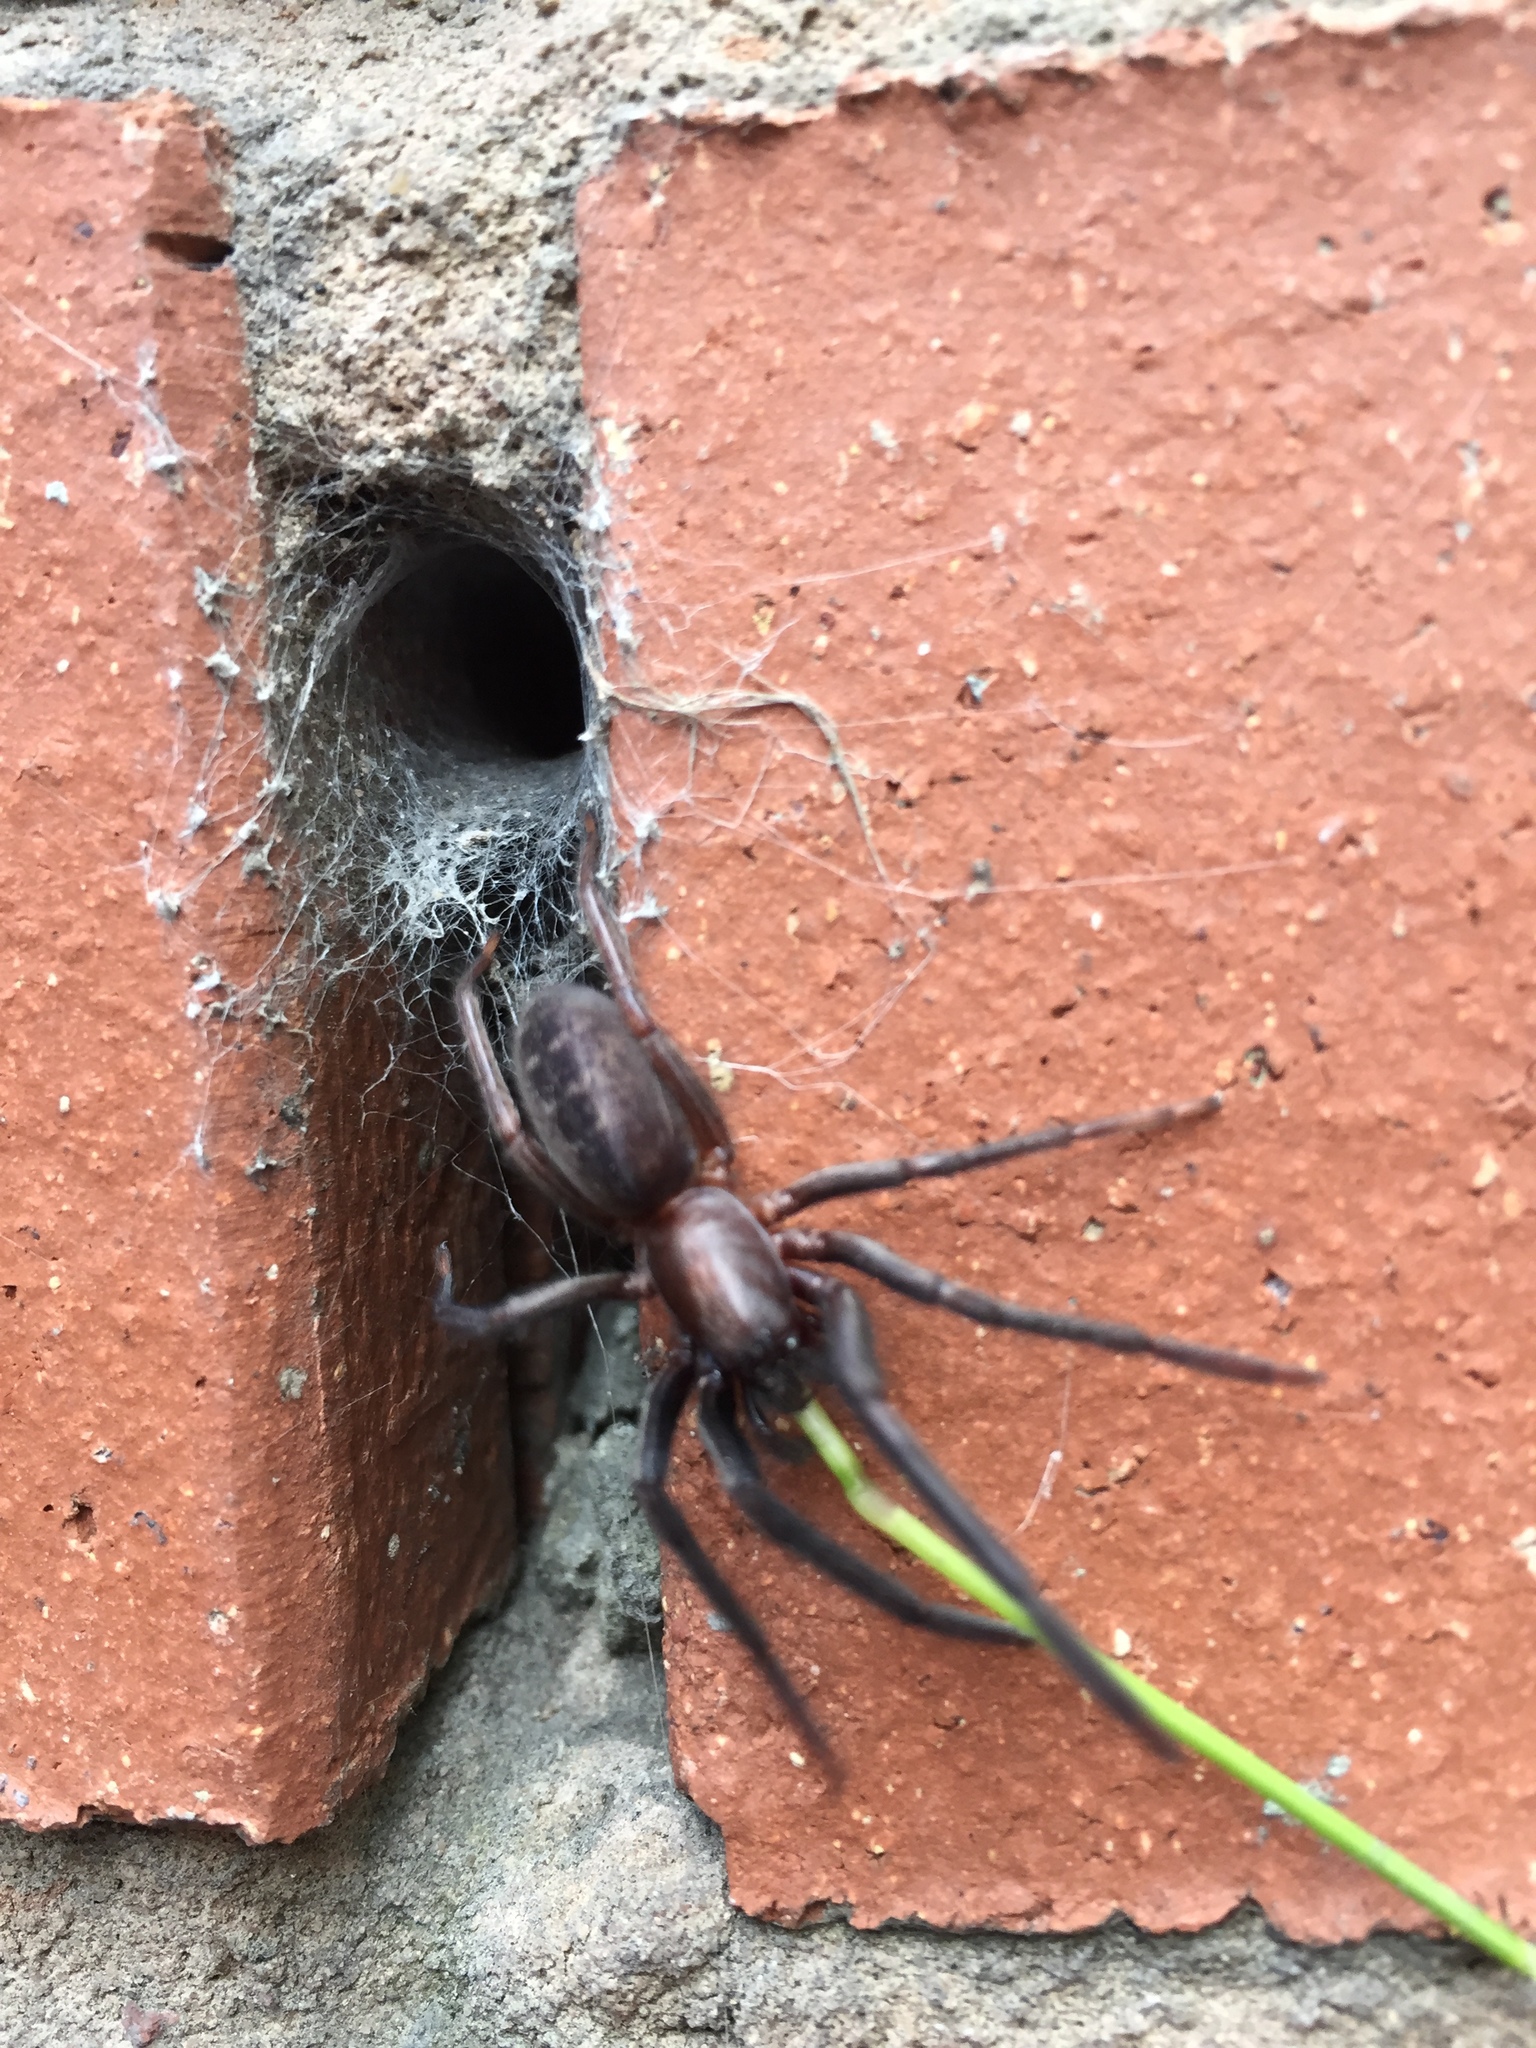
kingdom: Animalia
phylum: Arthropoda
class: Arachnida
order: Araneae
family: Segestriidae
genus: Segestria
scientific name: Segestria florentina
